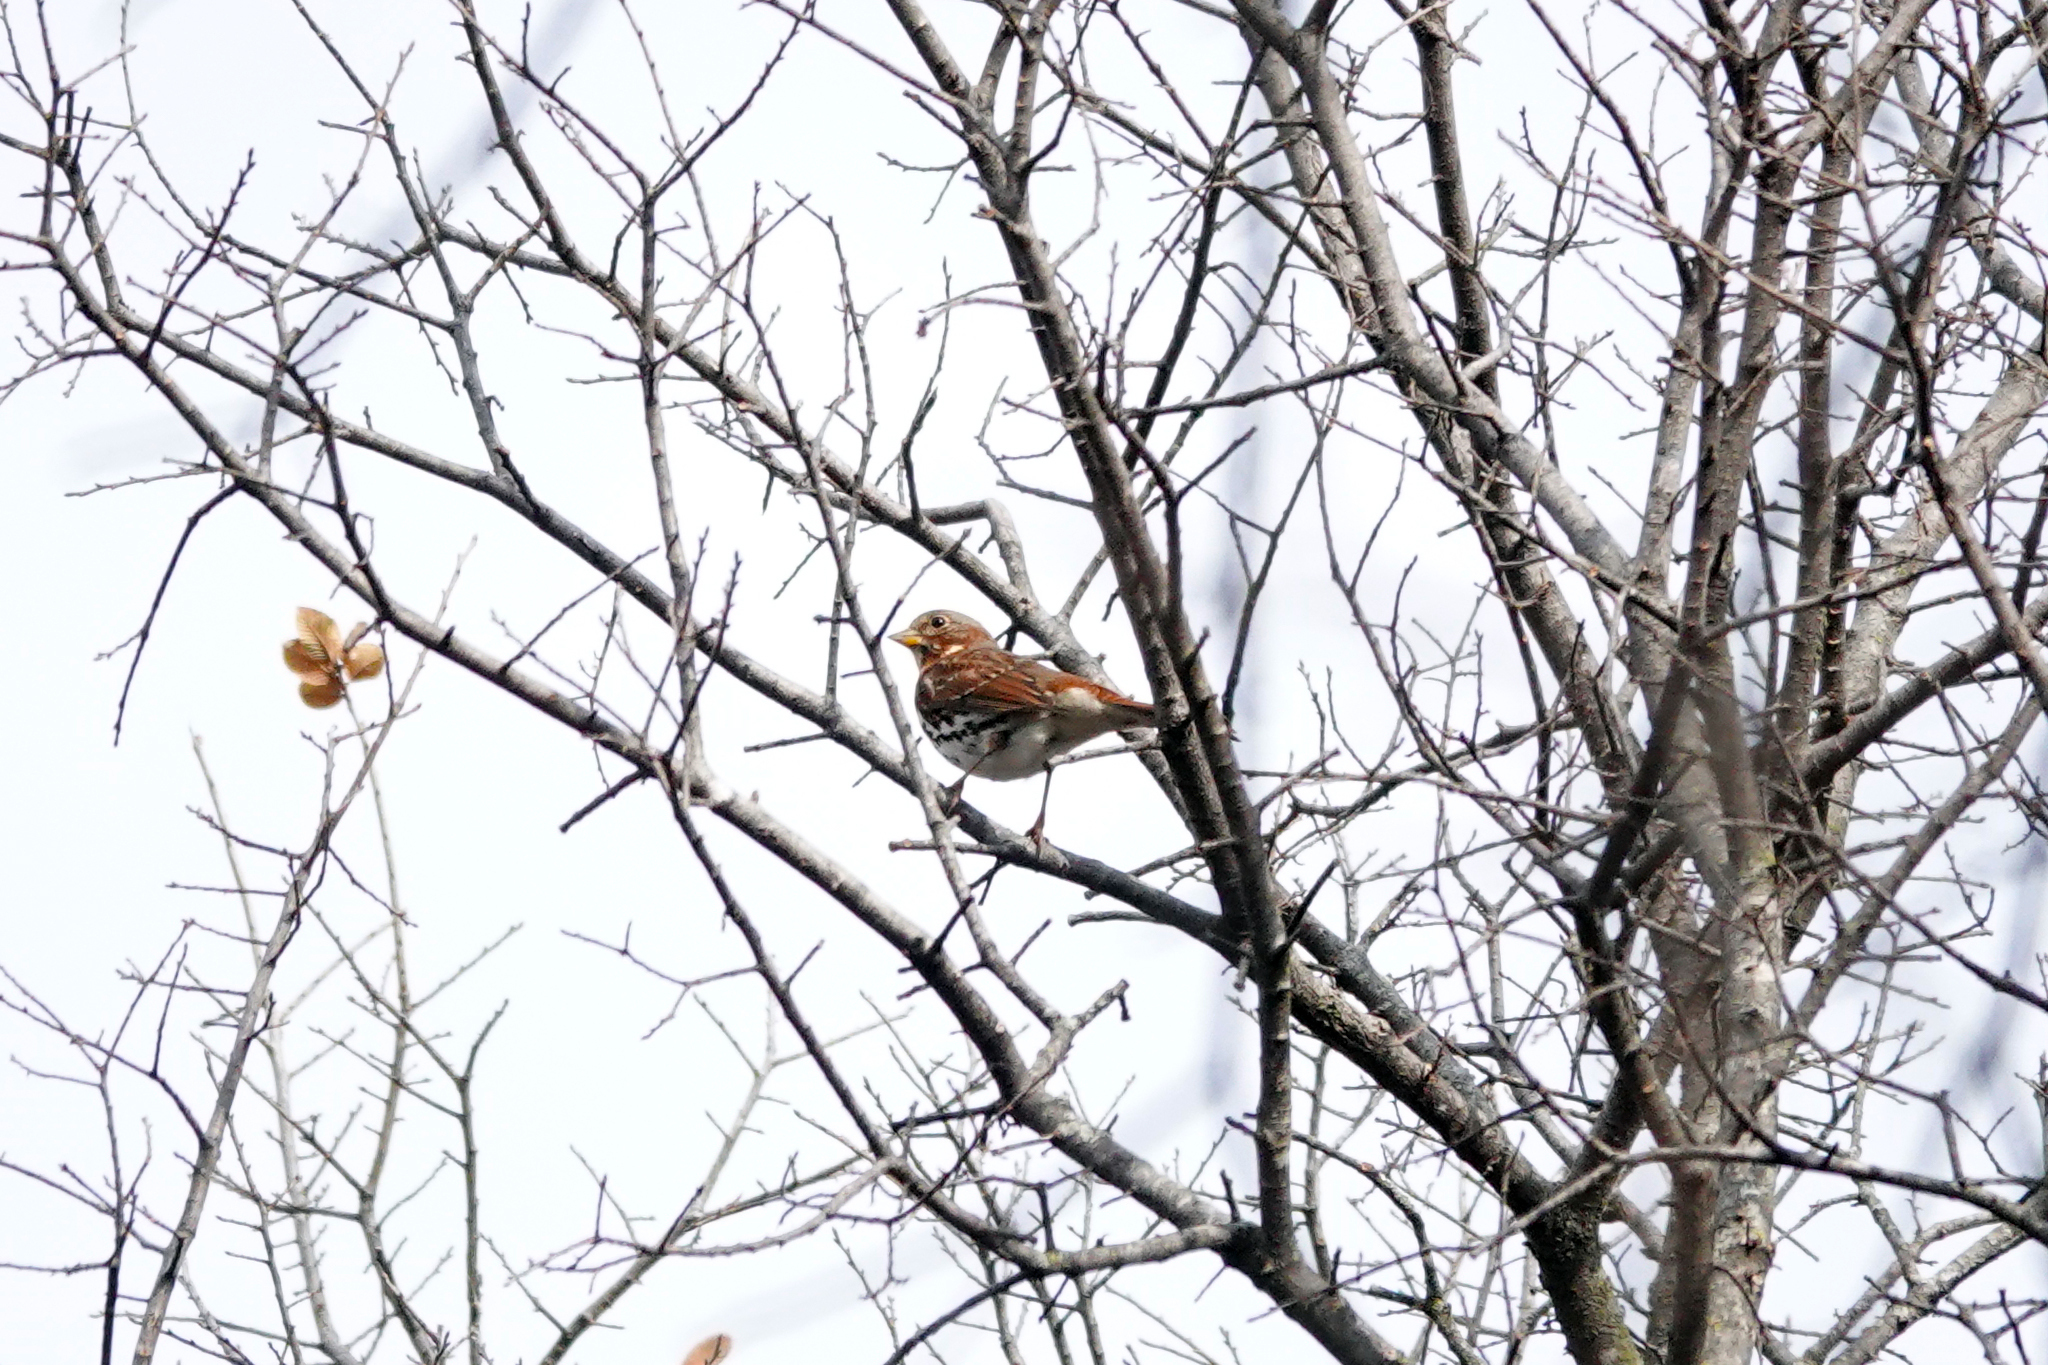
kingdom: Animalia
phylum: Chordata
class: Aves
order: Passeriformes
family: Passerellidae
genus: Passerella
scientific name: Passerella iliaca
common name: Fox sparrow
